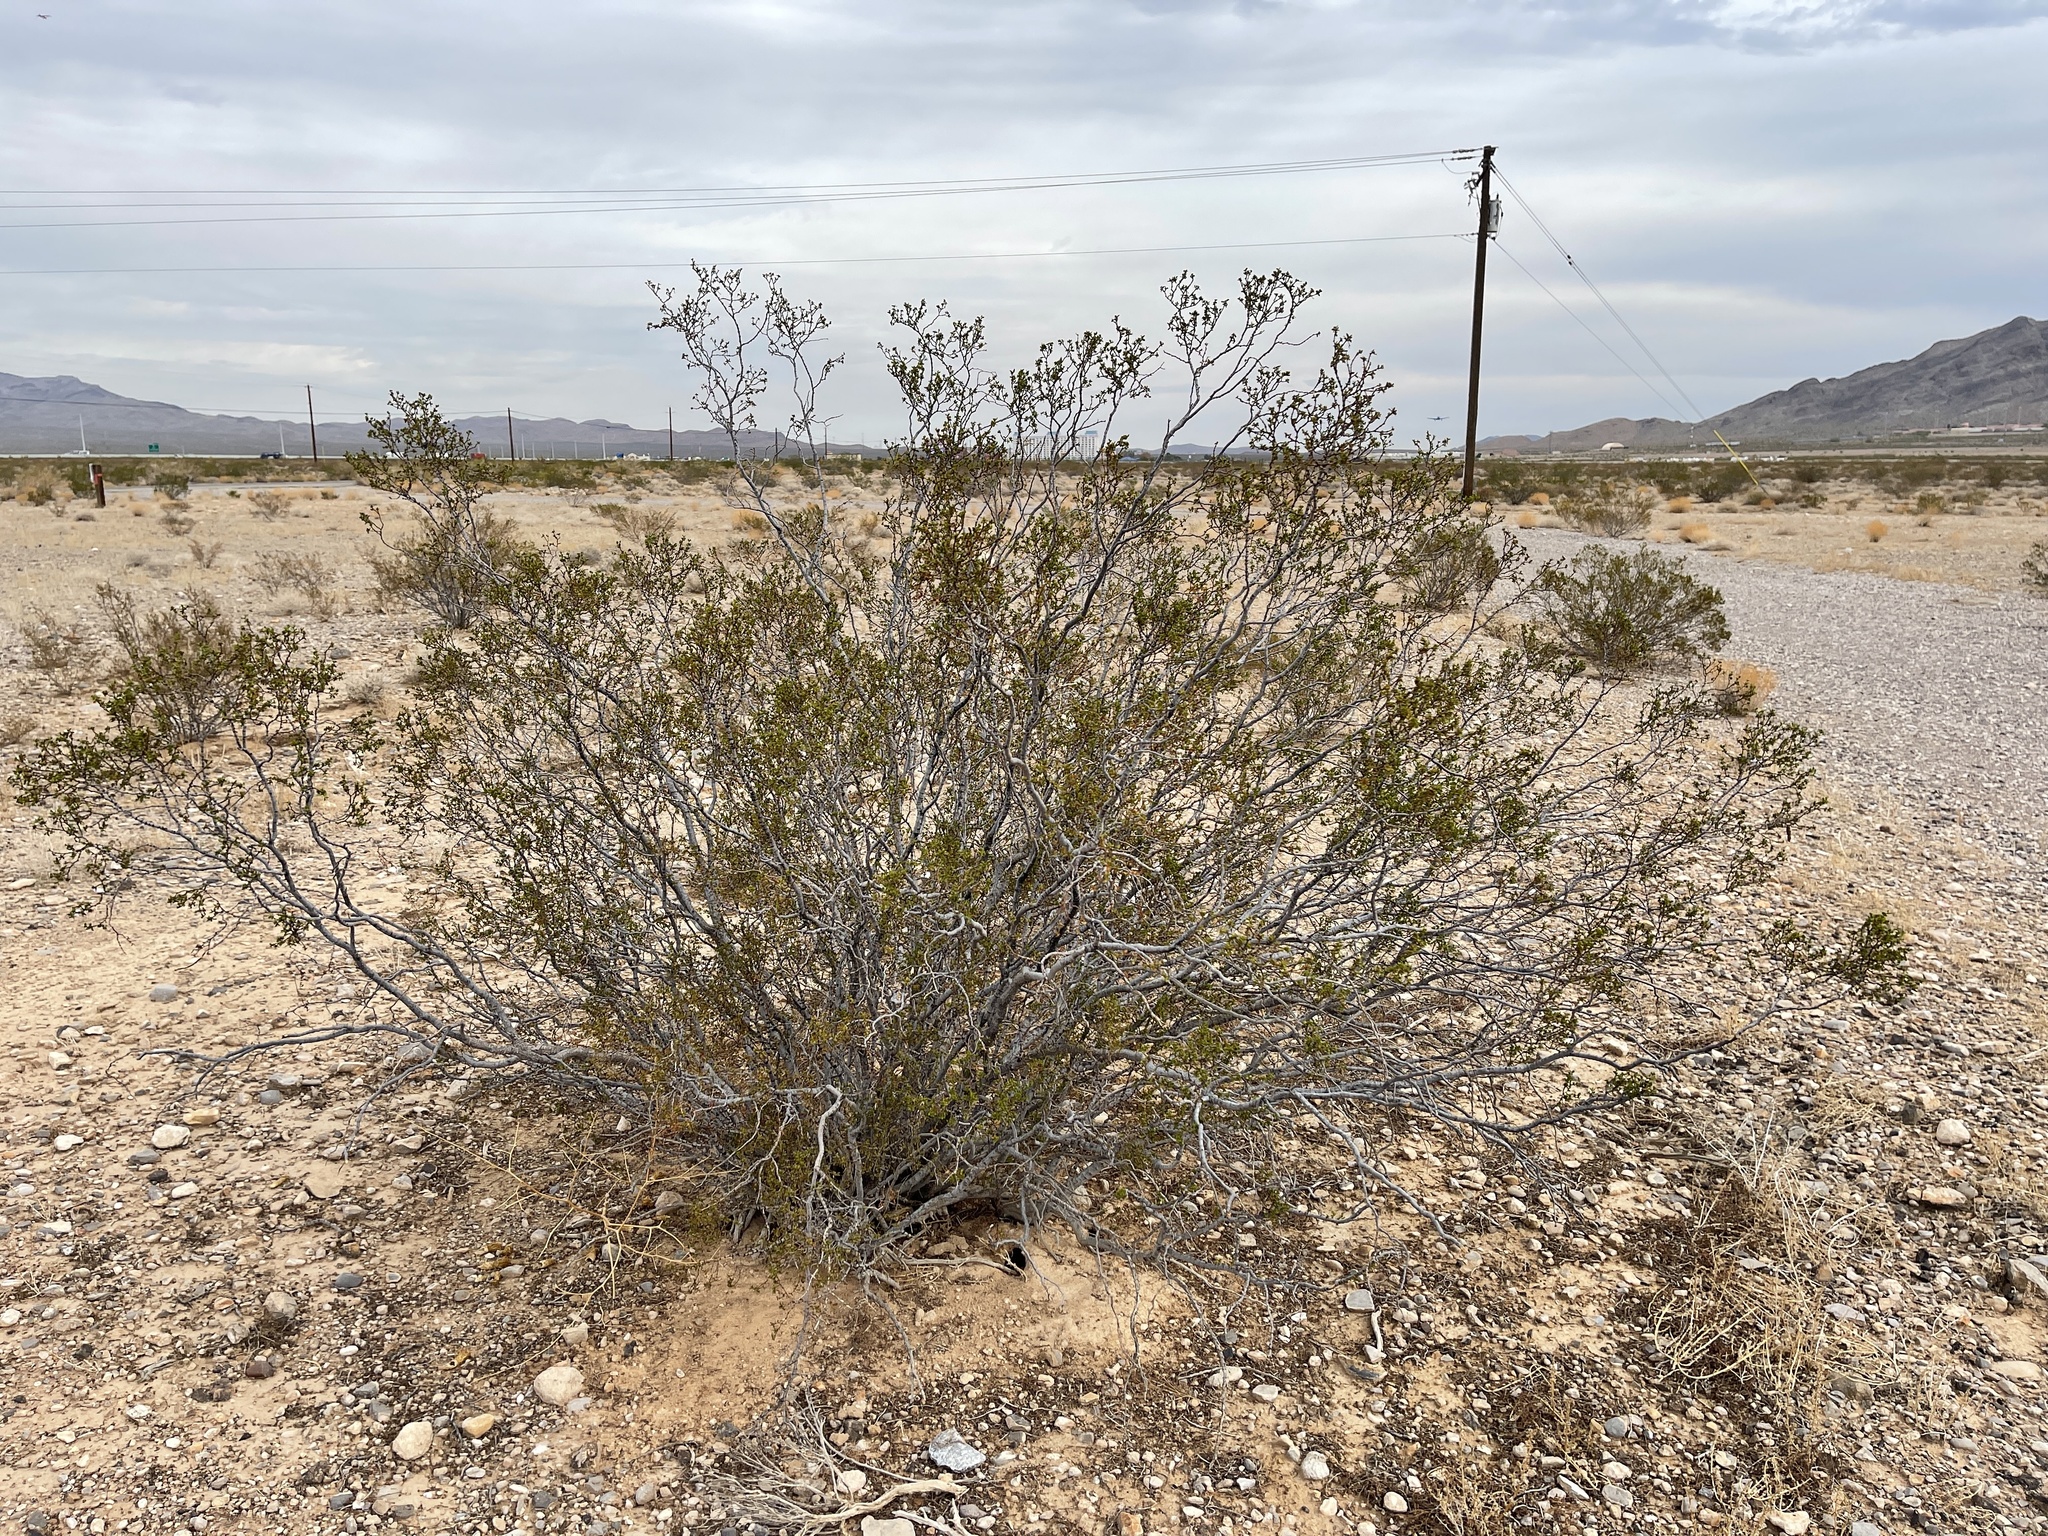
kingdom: Plantae
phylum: Tracheophyta
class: Magnoliopsida
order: Zygophyllales
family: Zygophyllaceae
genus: Larrea
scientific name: Larrea tridentata
